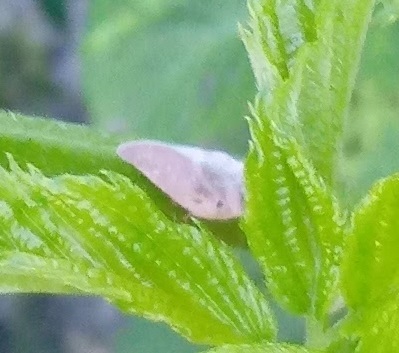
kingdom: Animalia
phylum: Arthropoda
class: Insecta
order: Hemiptera
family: Flatidae
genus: Metcalfa
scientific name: Metcalfa pruinosa
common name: Citrus flatid planthopper
